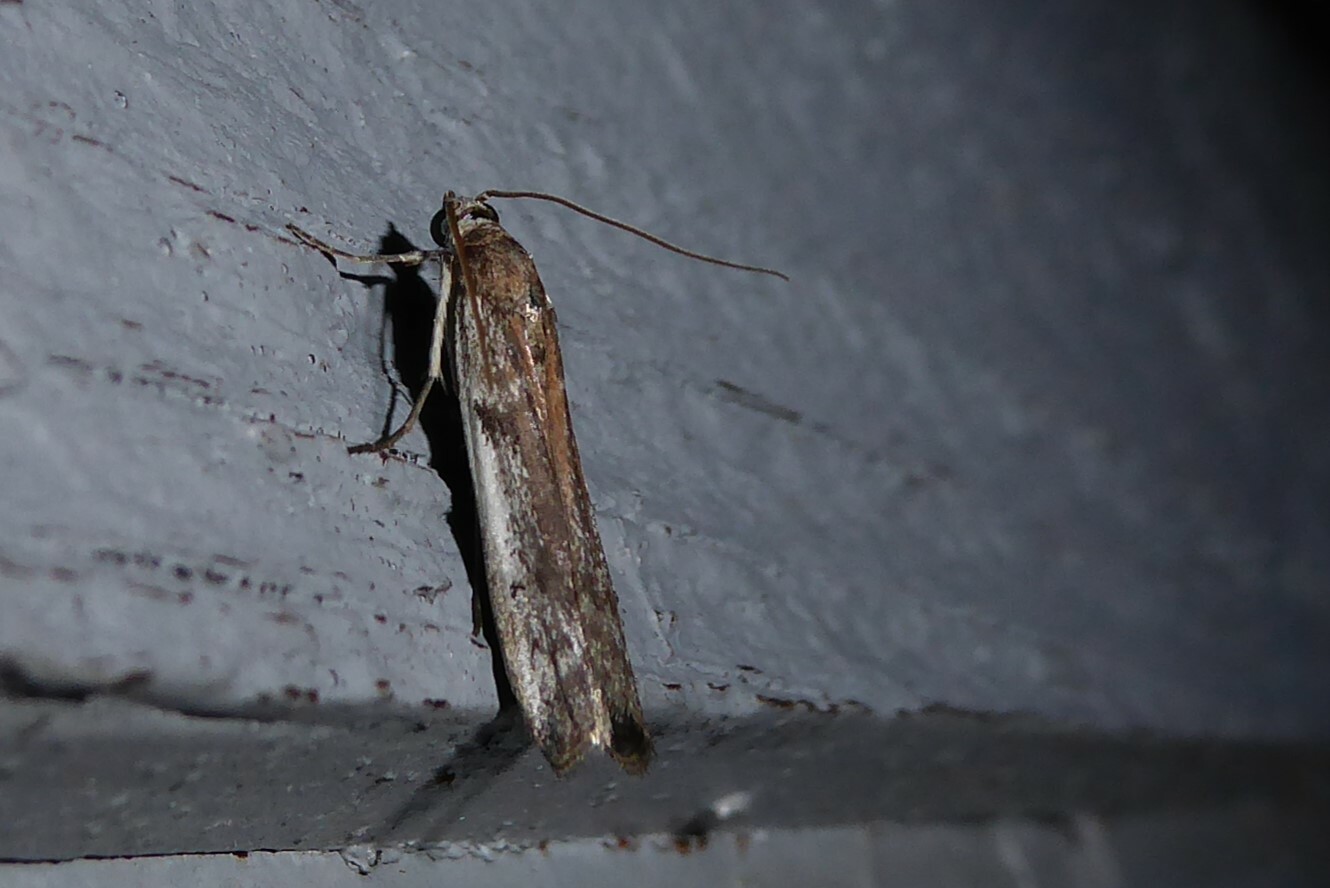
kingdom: Animalia
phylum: Arthropoda
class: Insecta
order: Lepidoptera
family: Pyralidae
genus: Patagoniodes
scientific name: Patagoniodes farinaria
